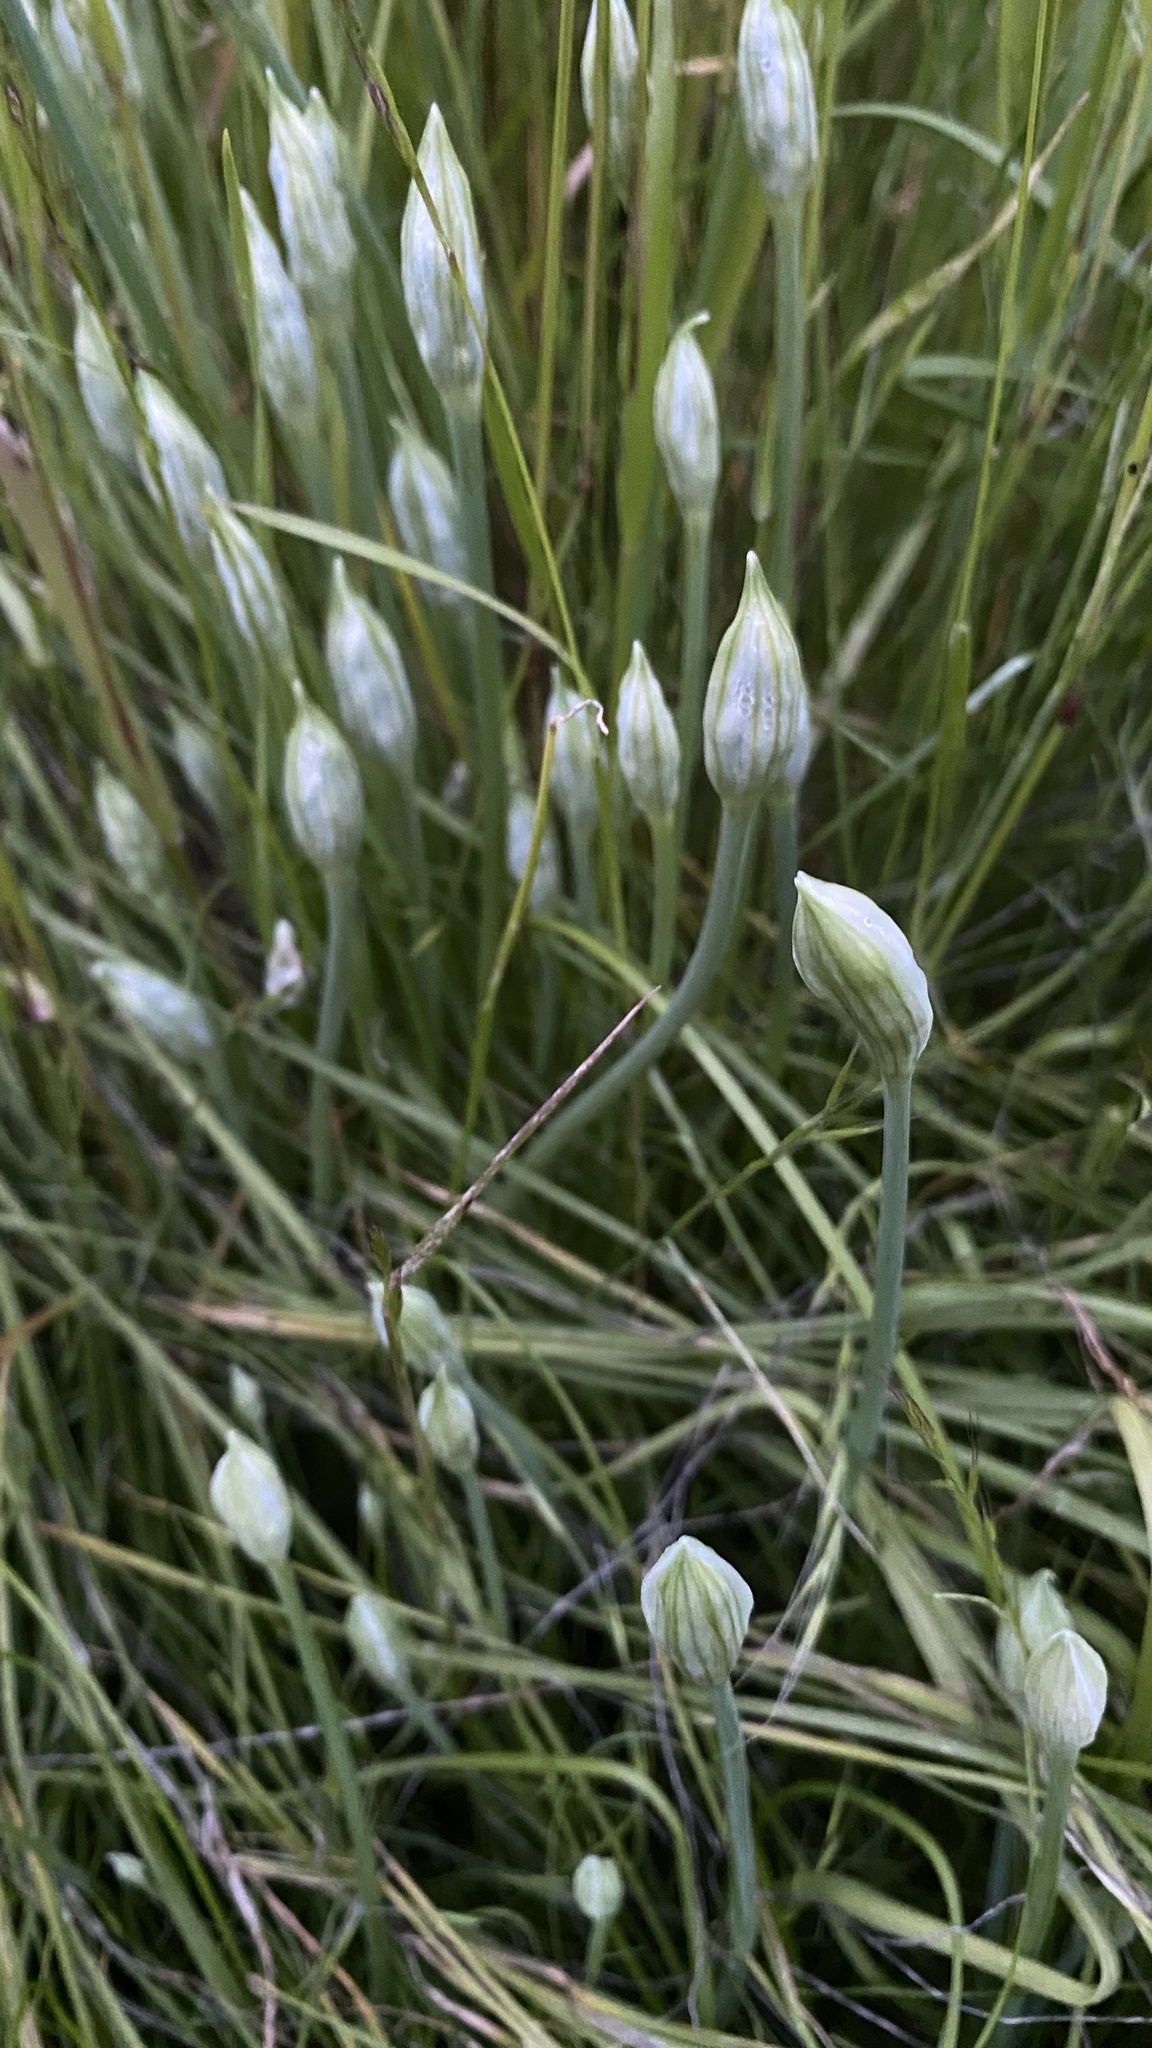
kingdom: Plantae
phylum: Tracheophyta
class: Liliopsida
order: Asparagales
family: Amaryllidaceae
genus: Allium
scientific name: Allium hyalinum
